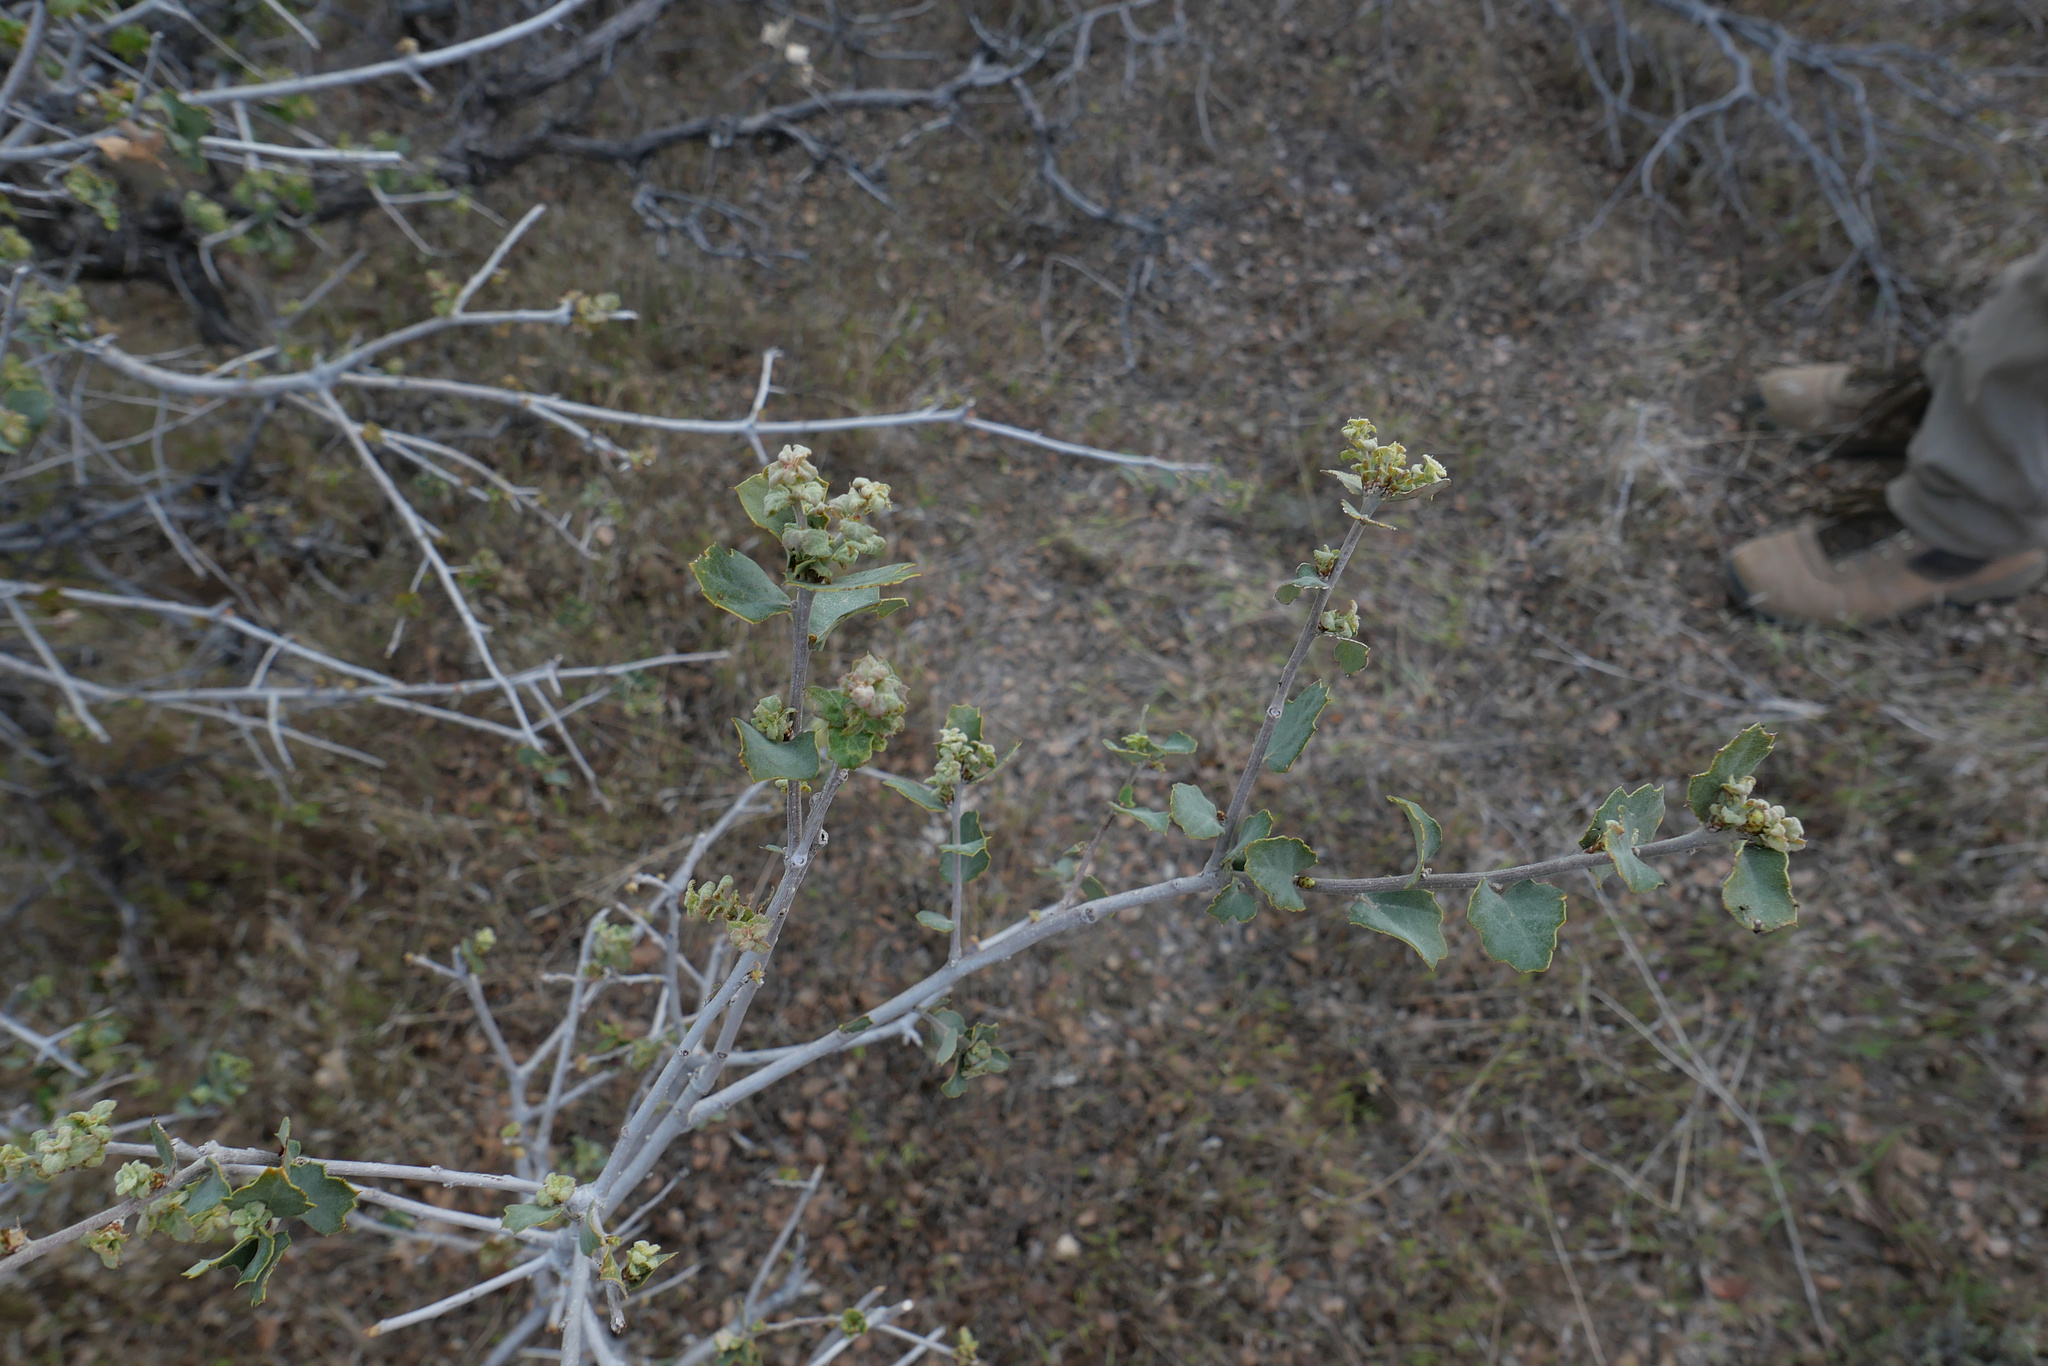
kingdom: Plantae
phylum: Tracheophyta
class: Magnoliopsida
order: Fagales
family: Fagaceae
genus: Quercus
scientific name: Quercus john-tuckeri
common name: Tucker's oak
